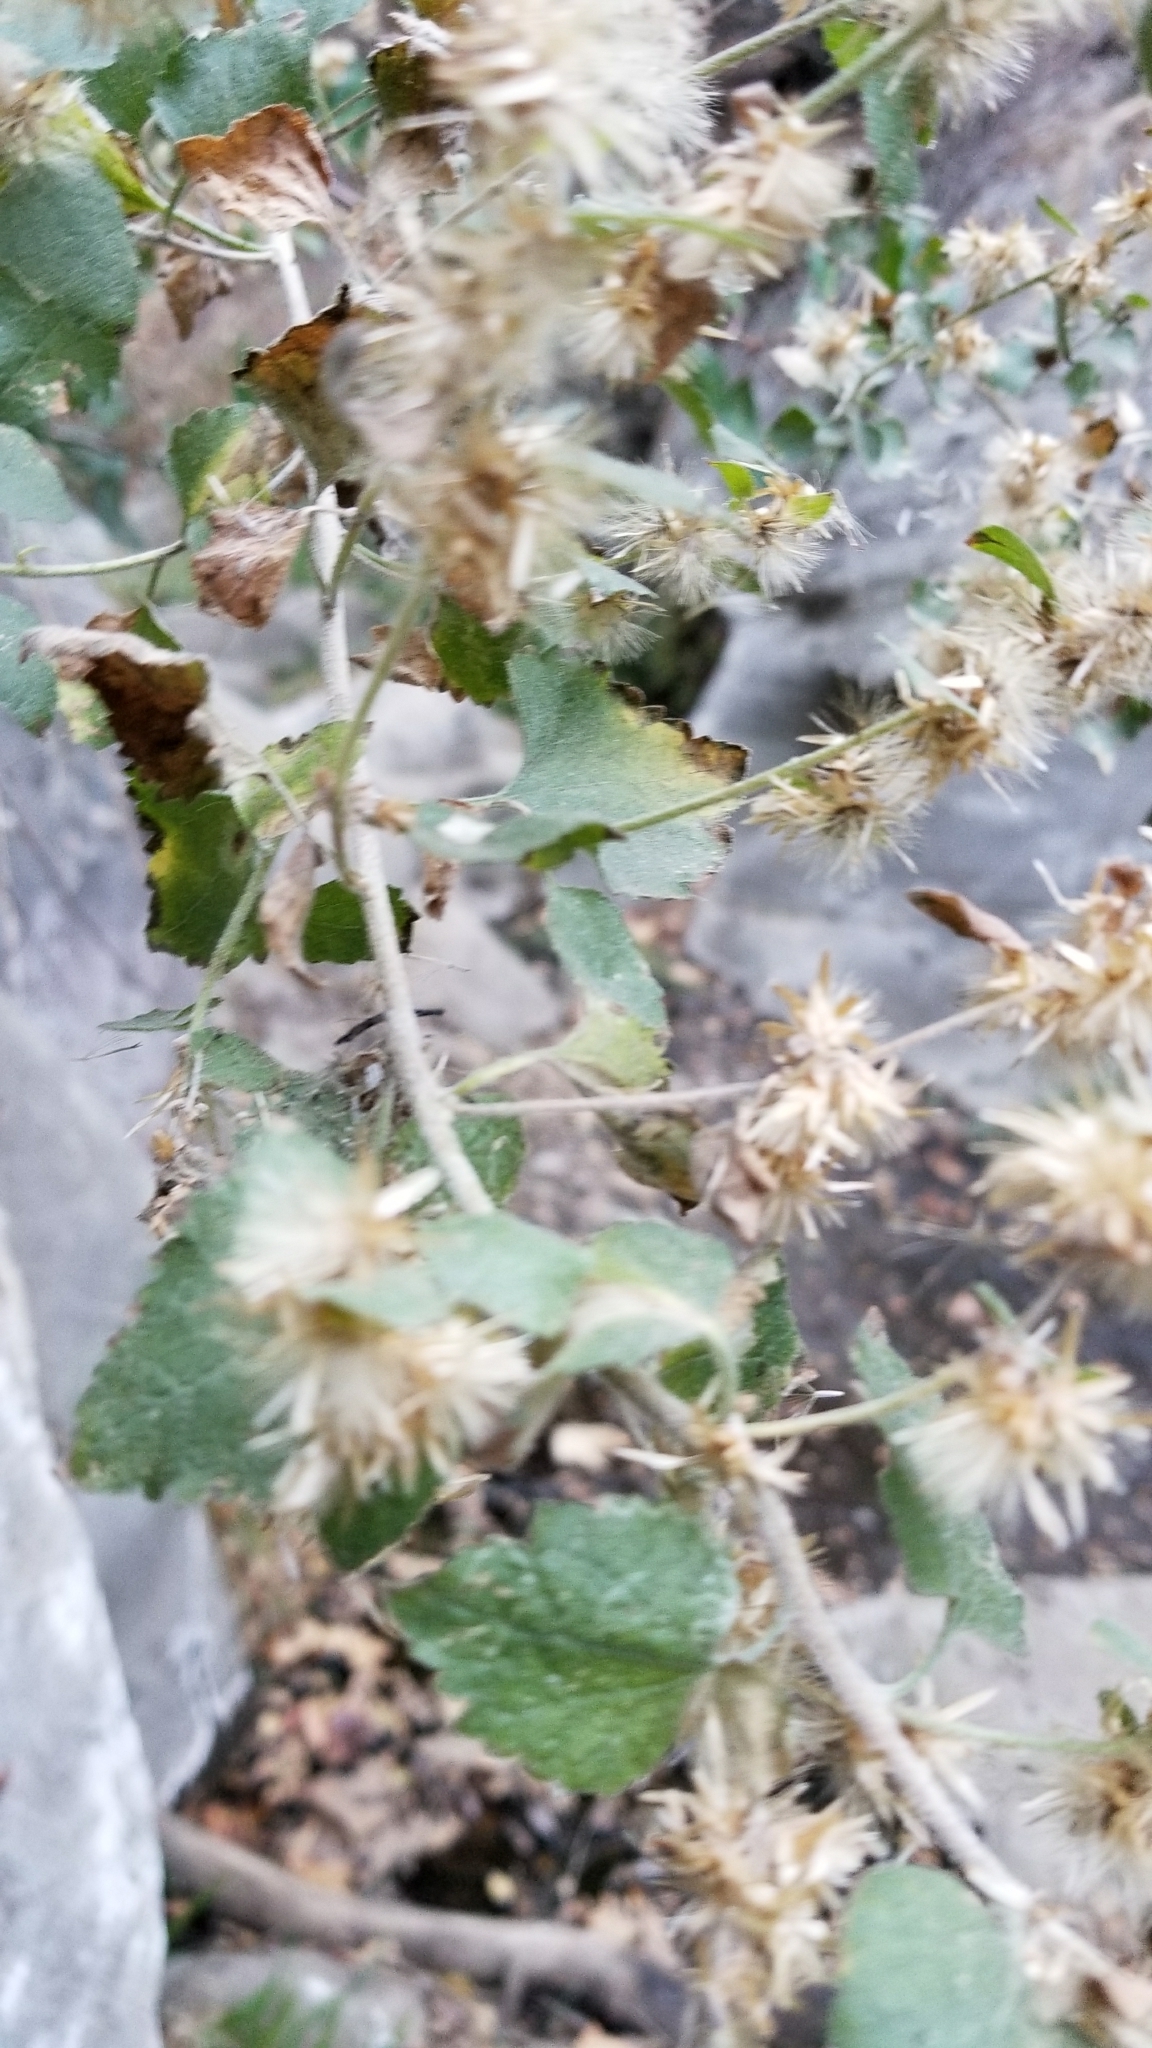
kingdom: Plantae
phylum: Tracheophyta
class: Magnoliopsida
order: Asterales
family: Asteraceae
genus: Brickellia
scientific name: Brickellia californica
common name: California brickellbush
